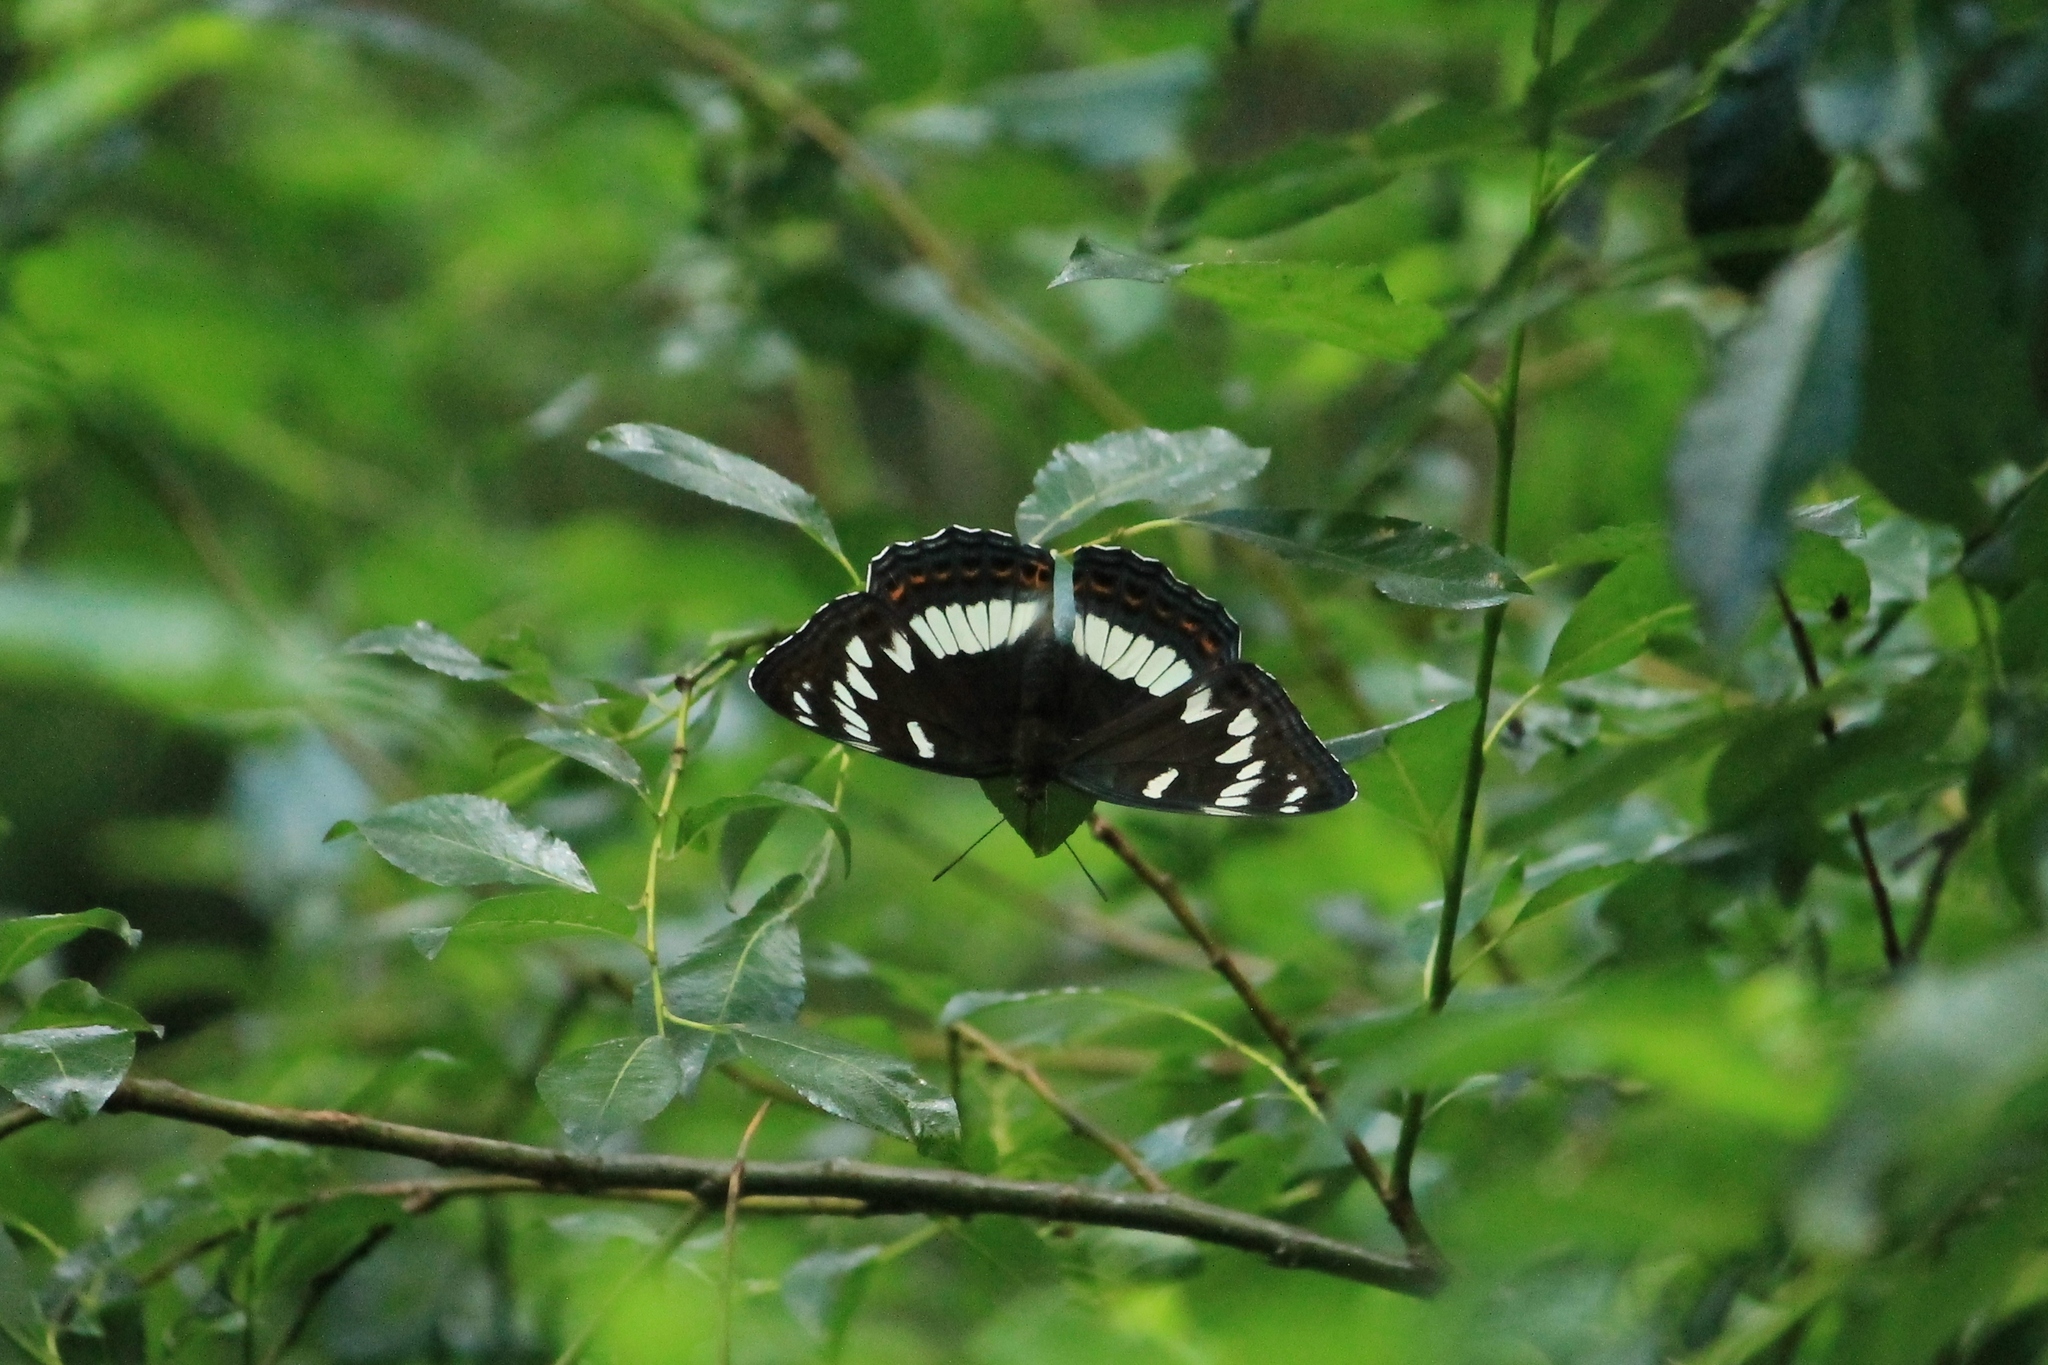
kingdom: Animalia
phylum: Arthropoda
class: Insecta
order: Lepidoptera
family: Nymphalidae
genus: Limenitis
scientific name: Limenitis populi
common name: Poplar admiral
